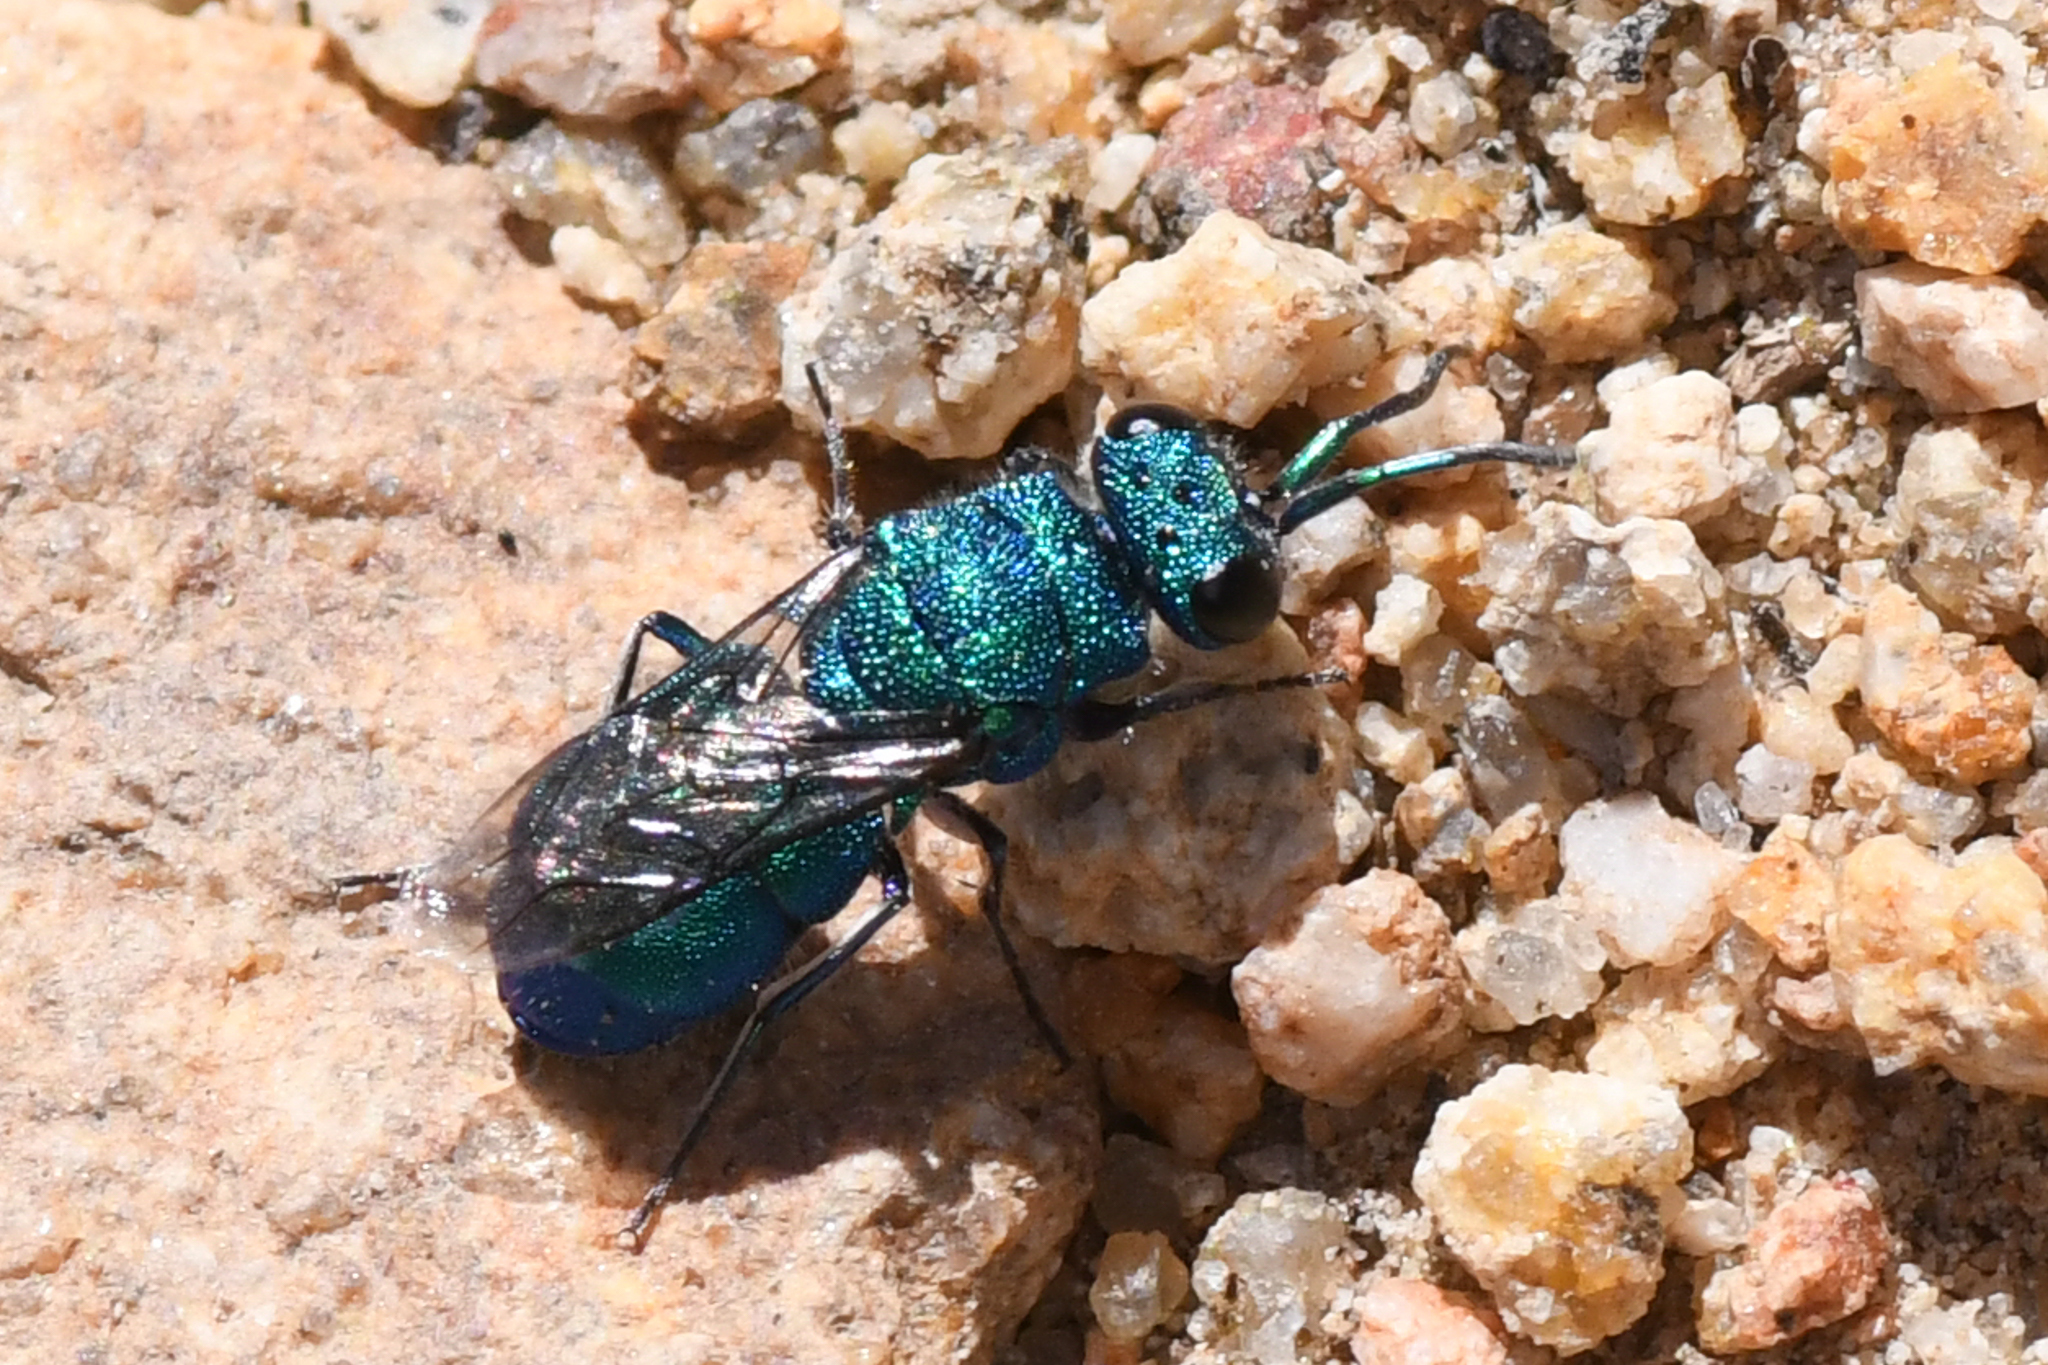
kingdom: Animalia
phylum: Arthropoda
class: Insecta
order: Hymenoptera
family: Chrysididae
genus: Ceratochrysis
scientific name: Ceratochrysis
